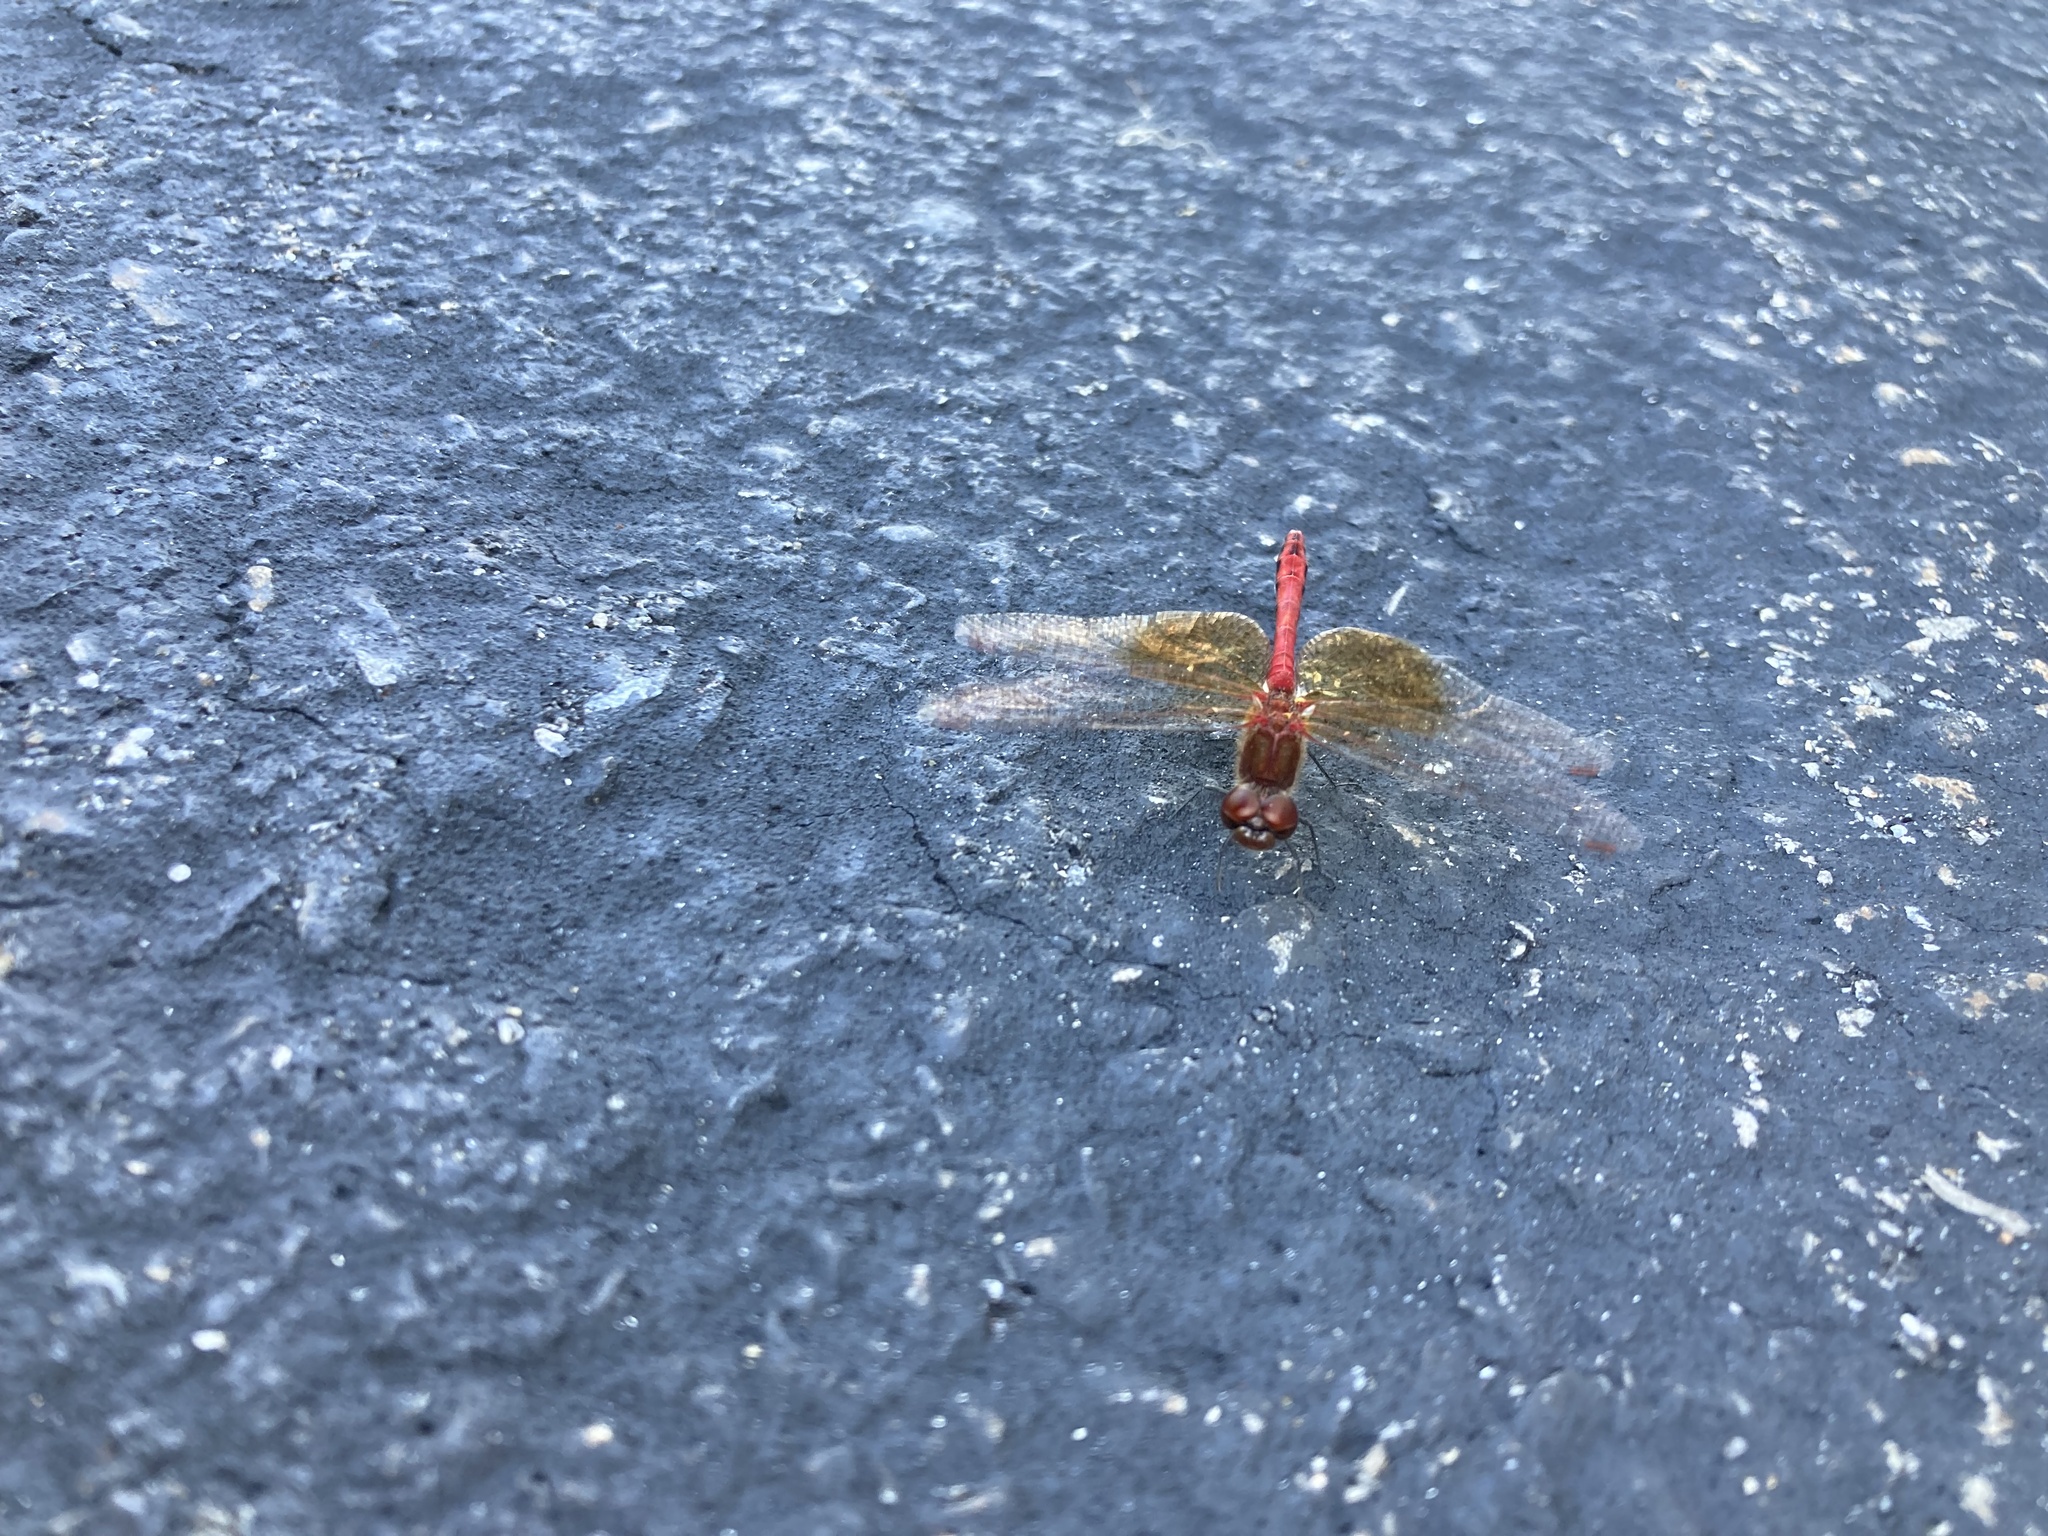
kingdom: Animalia
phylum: Arthropoda
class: Insecta
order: Odonata
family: Libellulidae
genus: Sympetrum
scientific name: Sympetrum semicinctum
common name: Band-winged meadowhawk
